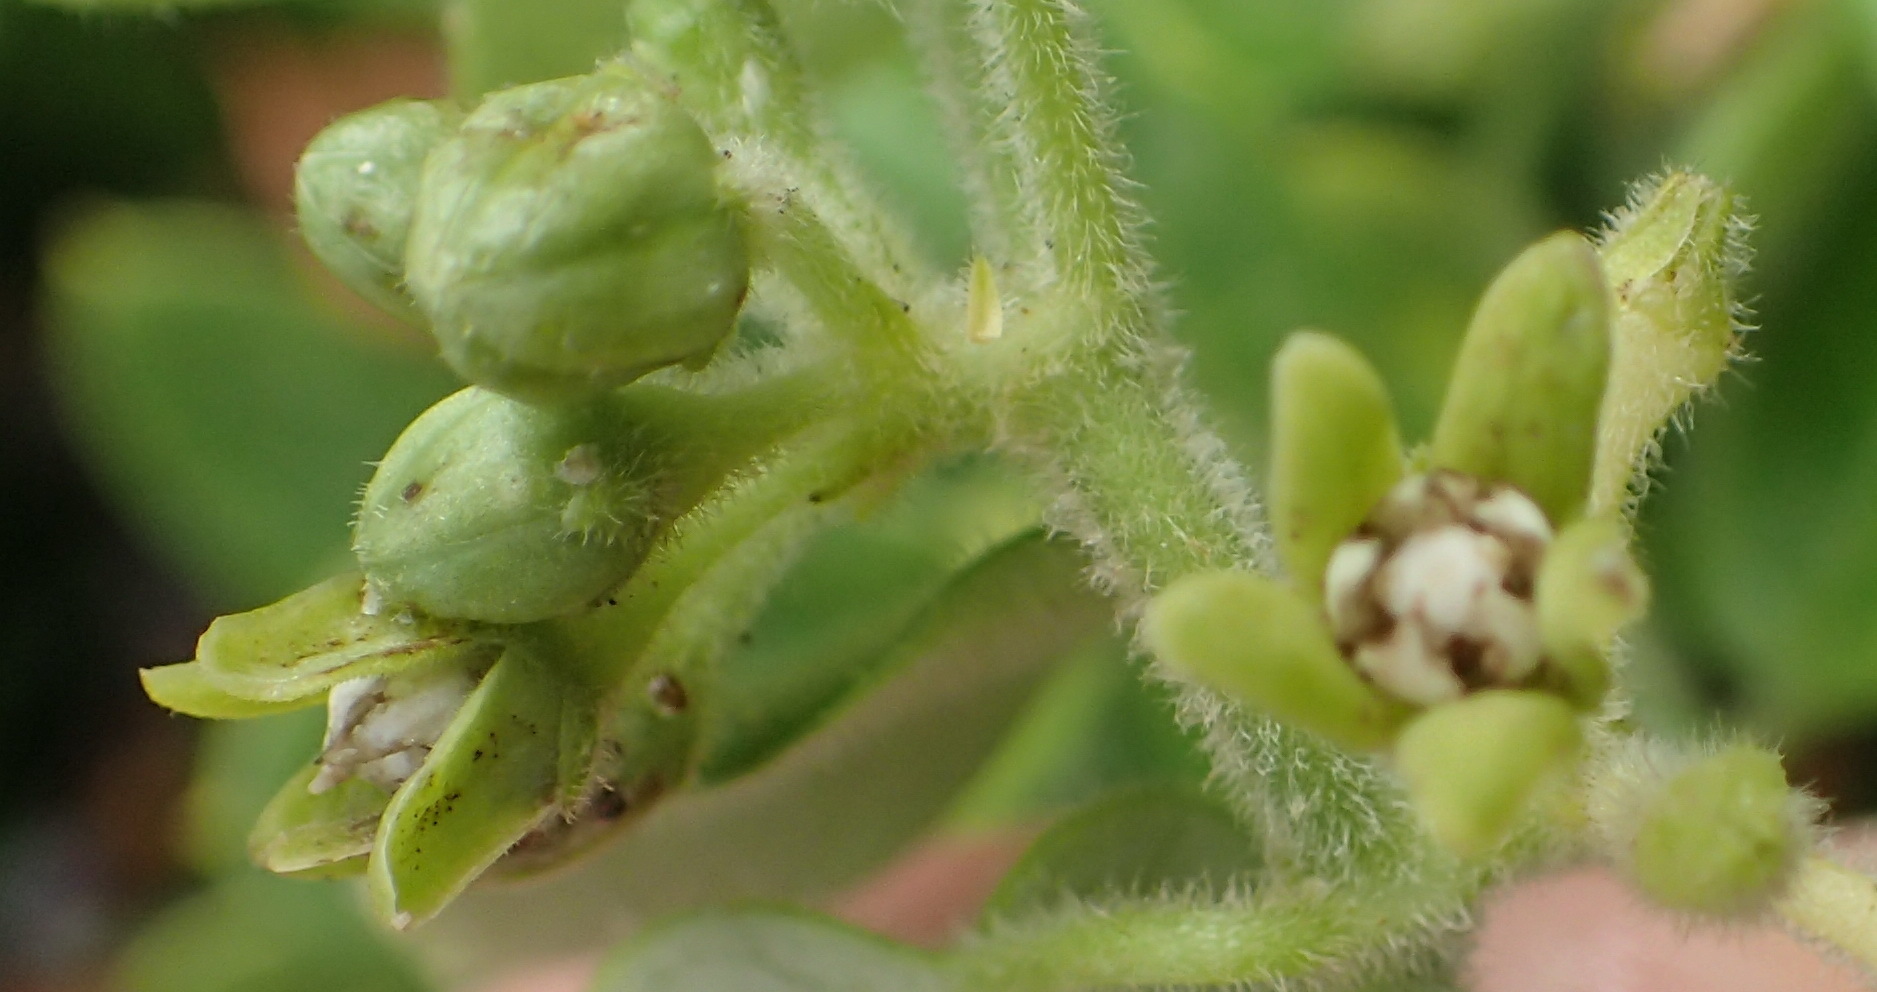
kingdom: Plantae
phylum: Tracheophyta
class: Magnoliopsida
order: Gentianales
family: Apocynaceae
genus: Cynanchum
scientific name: Cynanchum obtusifolium
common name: Monkey-rope
